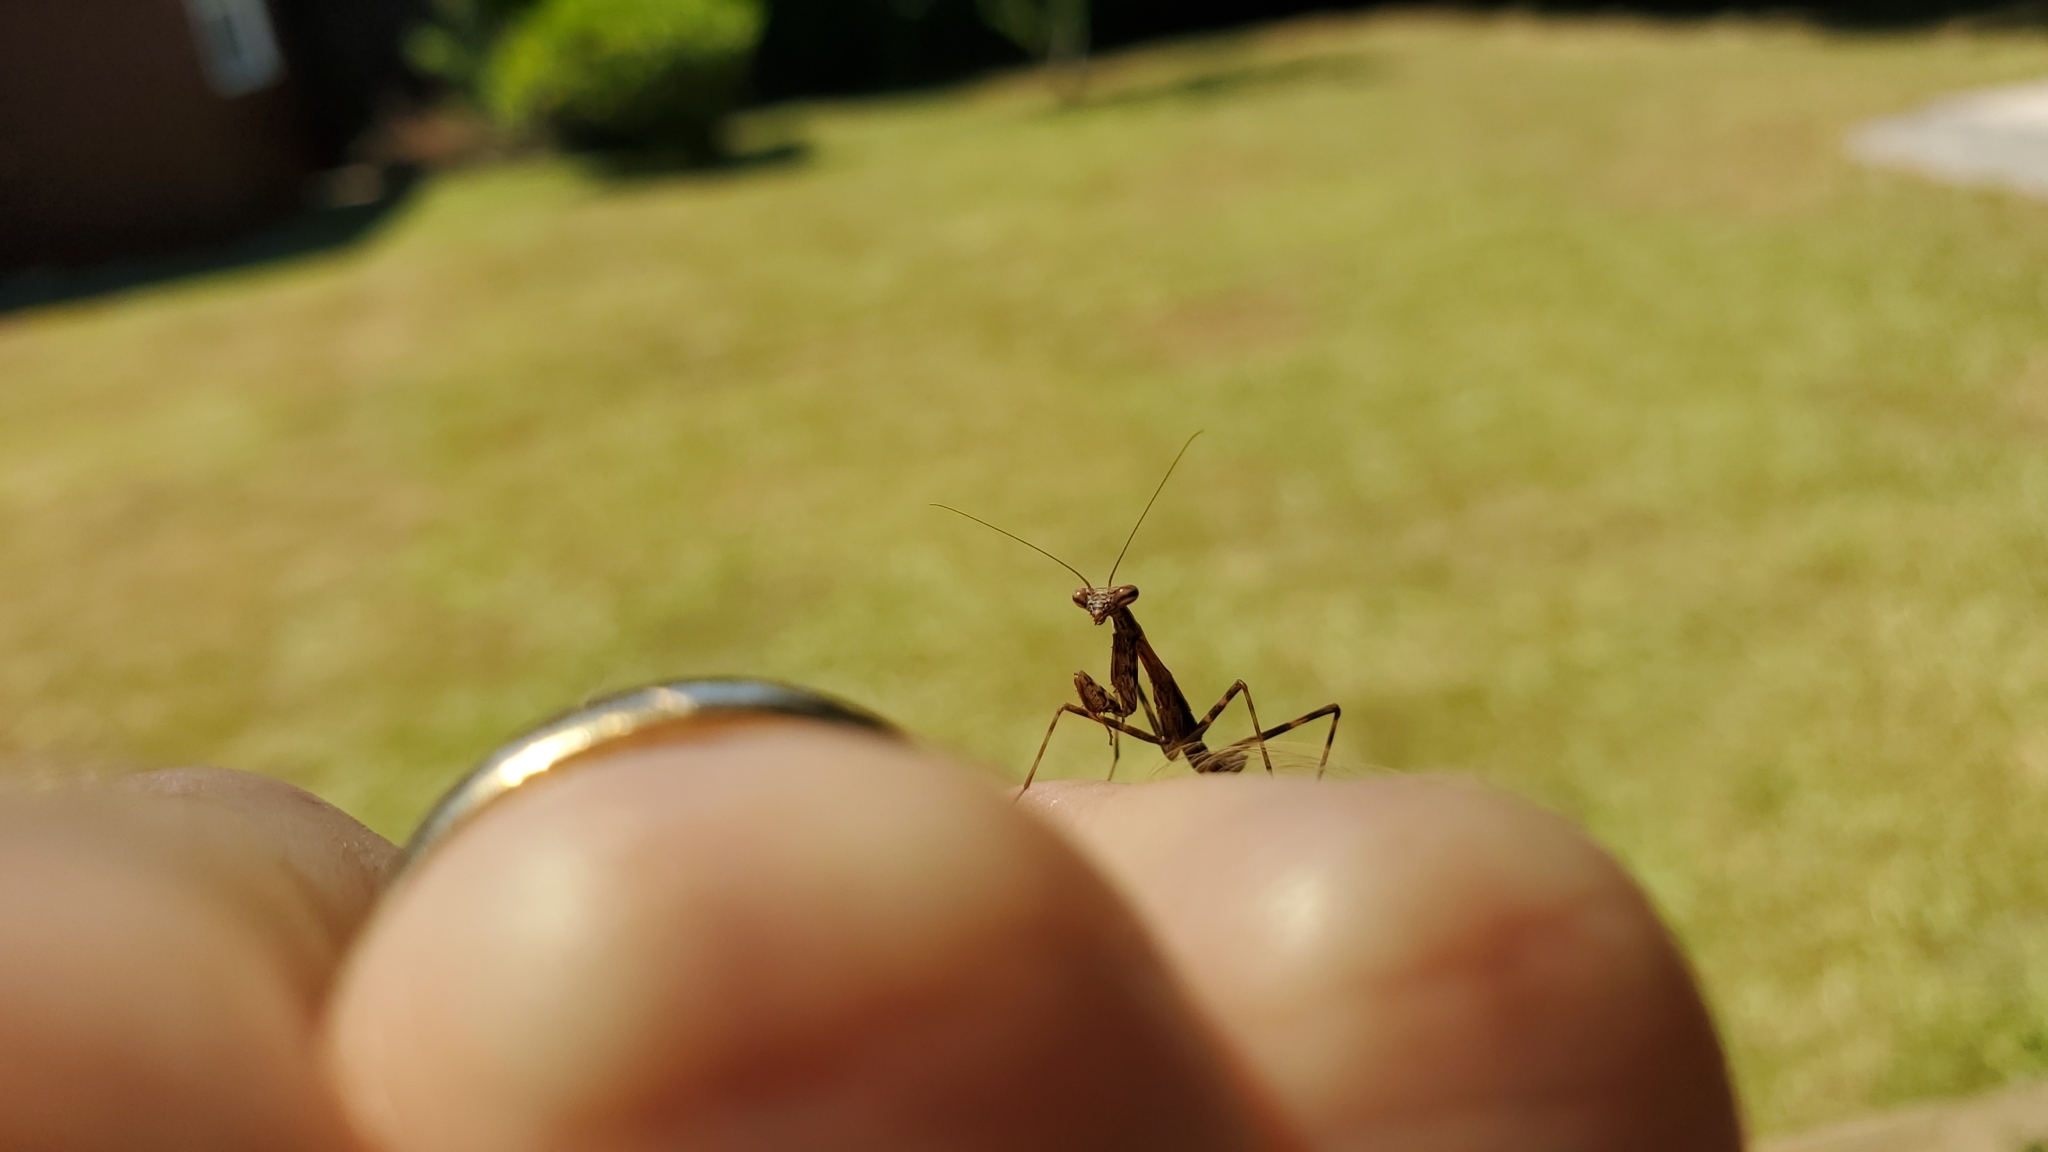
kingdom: Animalia
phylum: Arthropoda
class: Insecta
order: Mantodea
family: Miomantidae
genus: Miomantis
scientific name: Miomantis caffra
